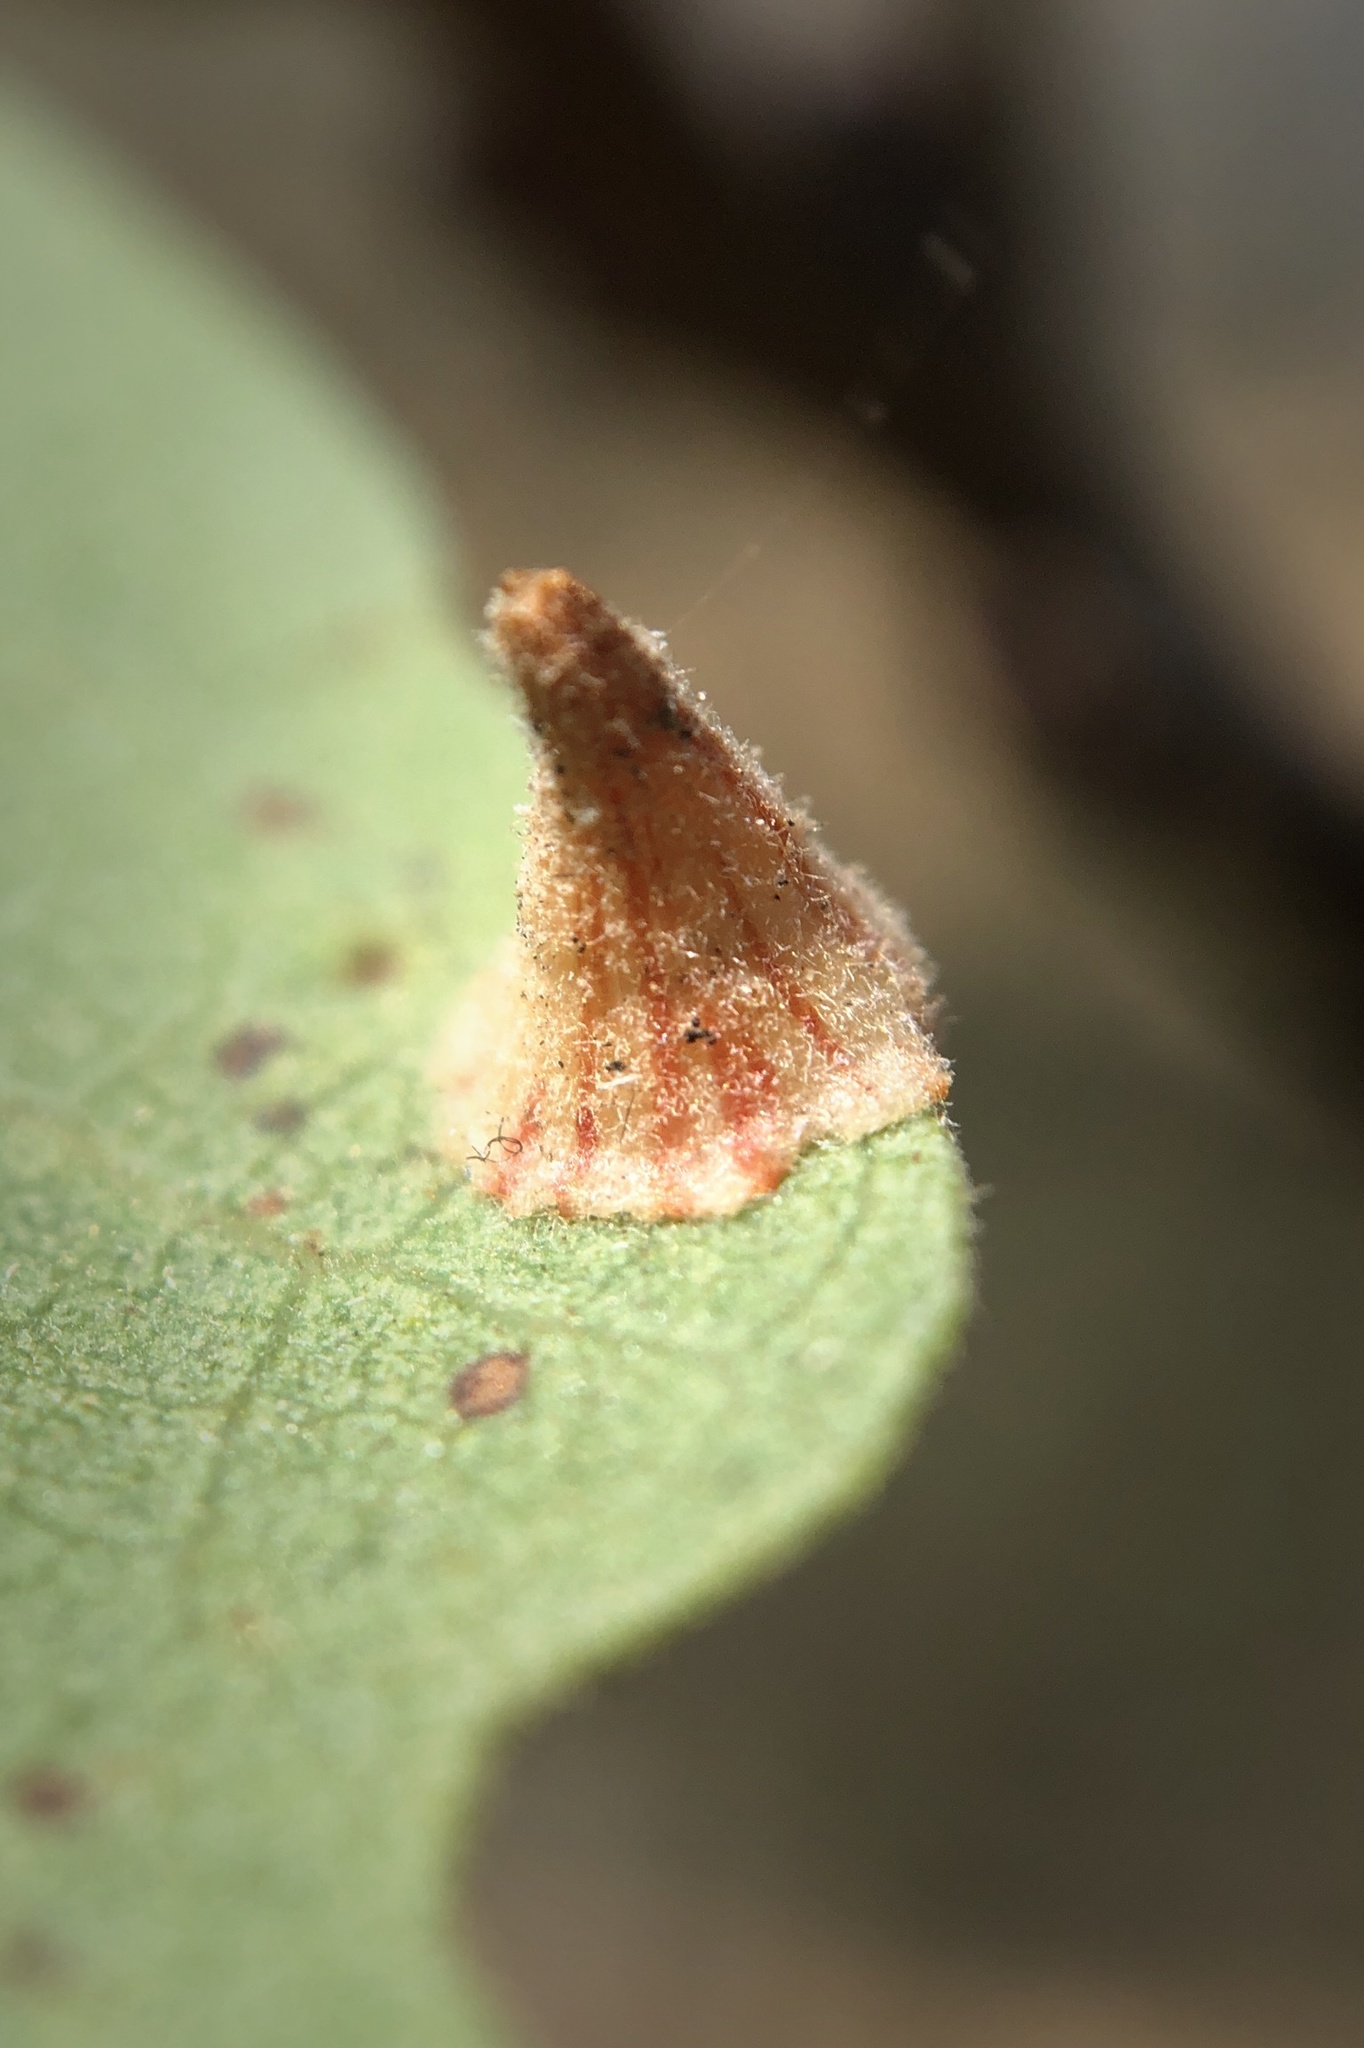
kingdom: Animalia
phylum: Arthropoda
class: Insecta
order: Hymenoptera
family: Cynipidae
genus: Andricus
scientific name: Andricus
